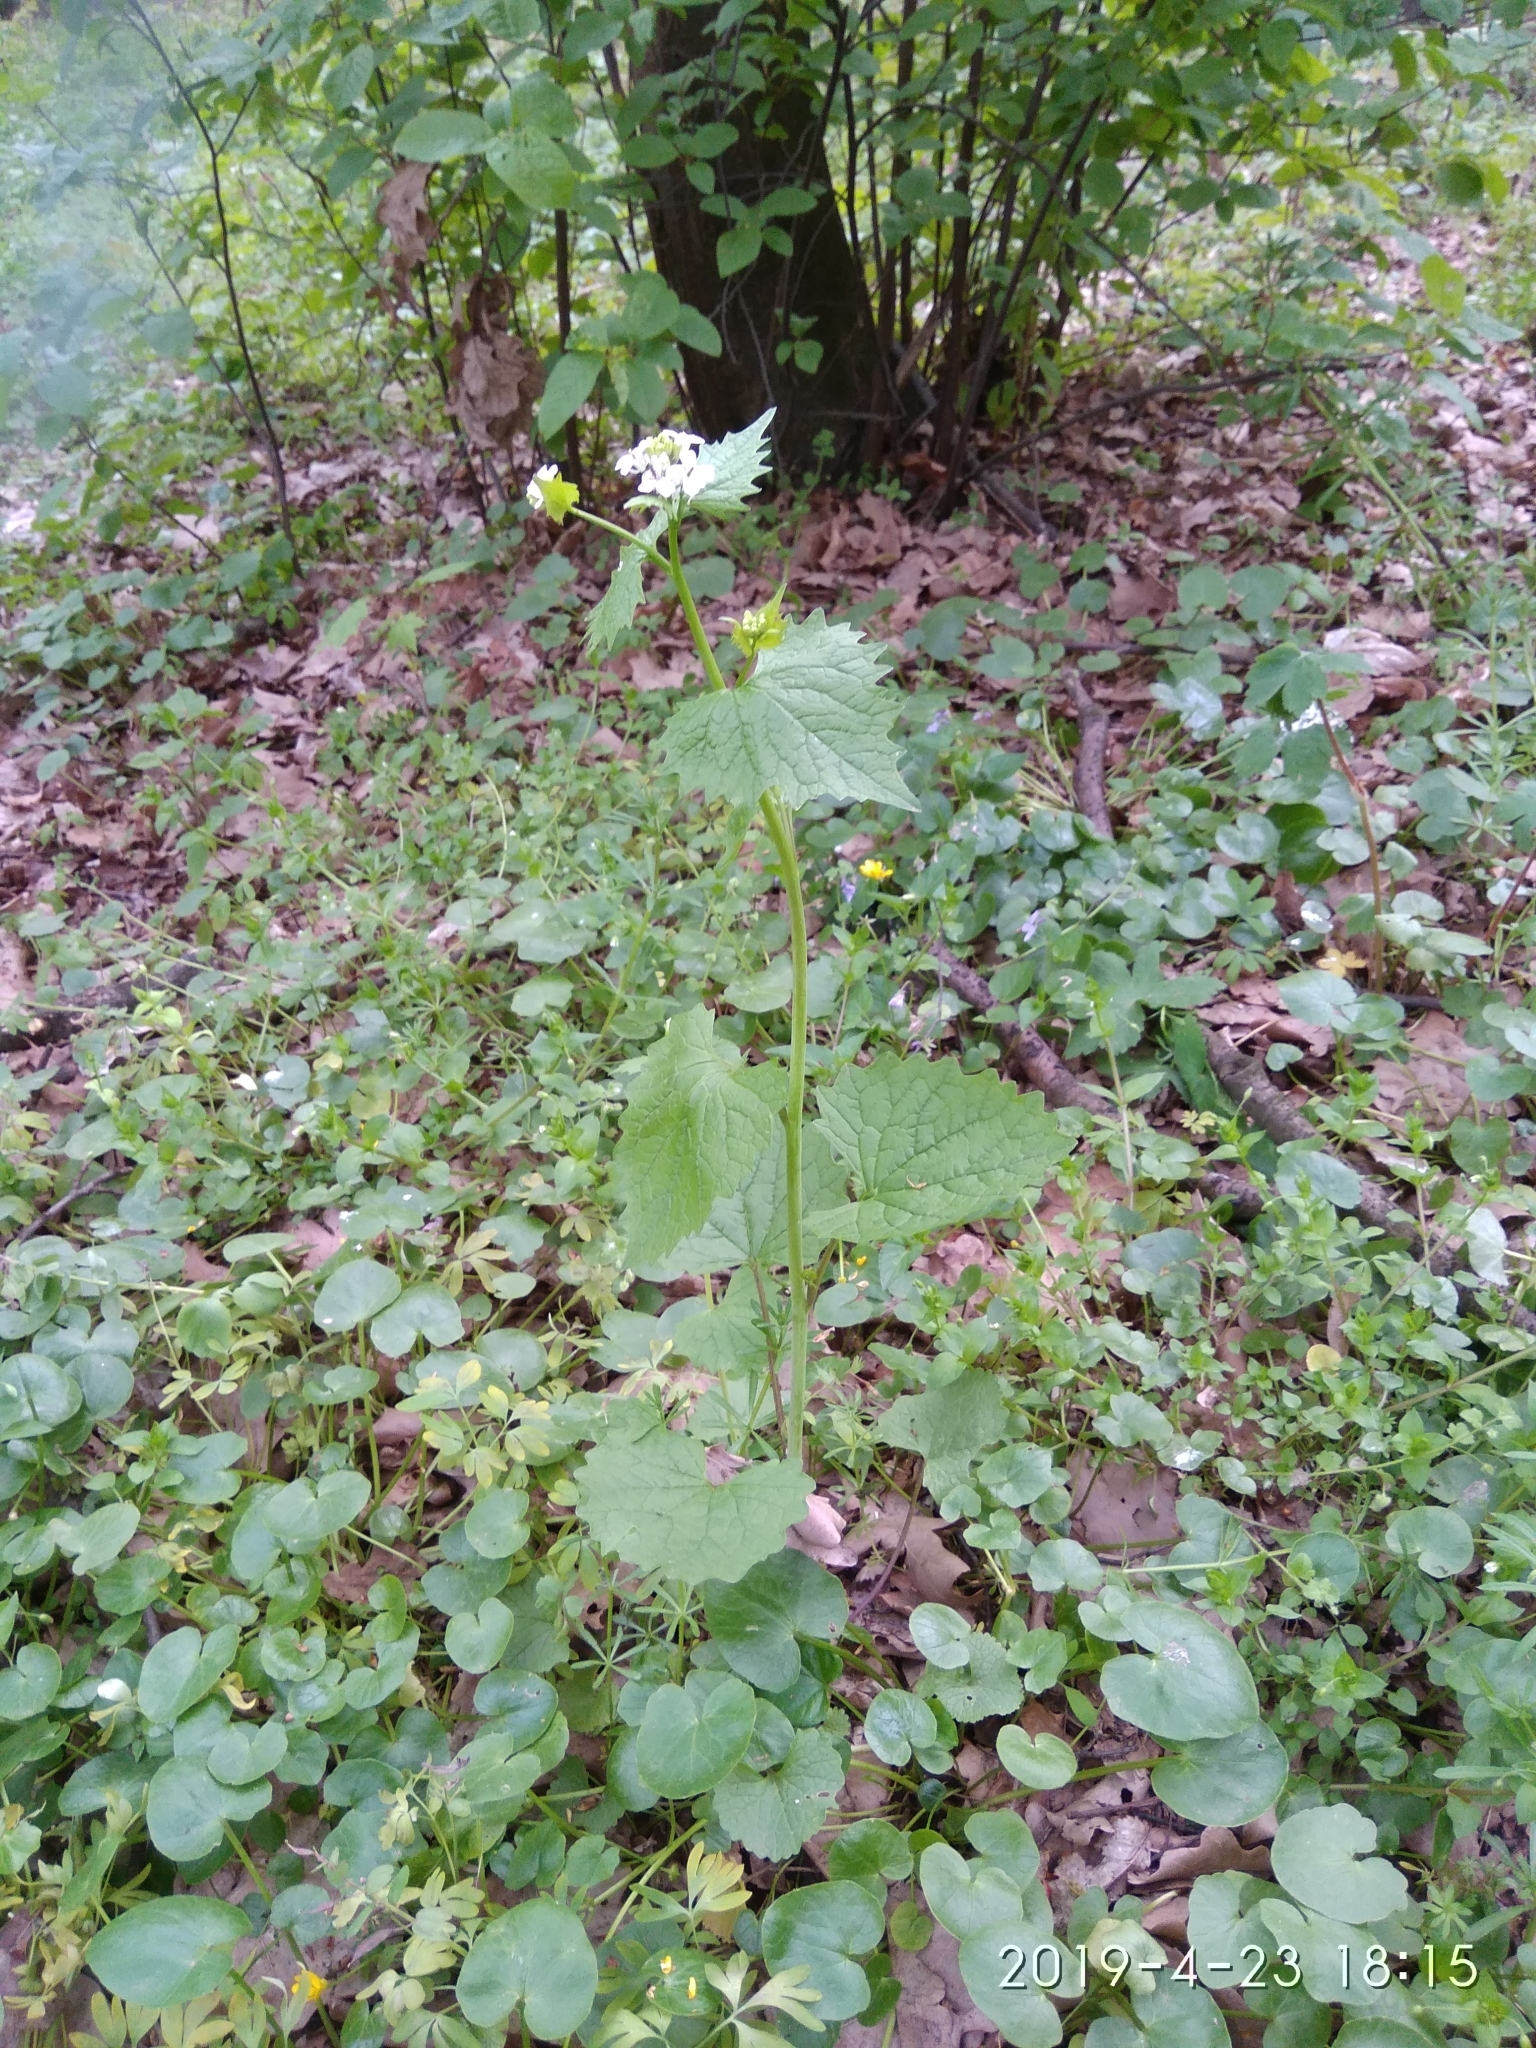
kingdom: Plantae
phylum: Tracheophyta
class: Magnoliopsida
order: Brassicales
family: Brassicaceae
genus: Alliaria
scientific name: Alliaria petiolata
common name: Garlic mustard
